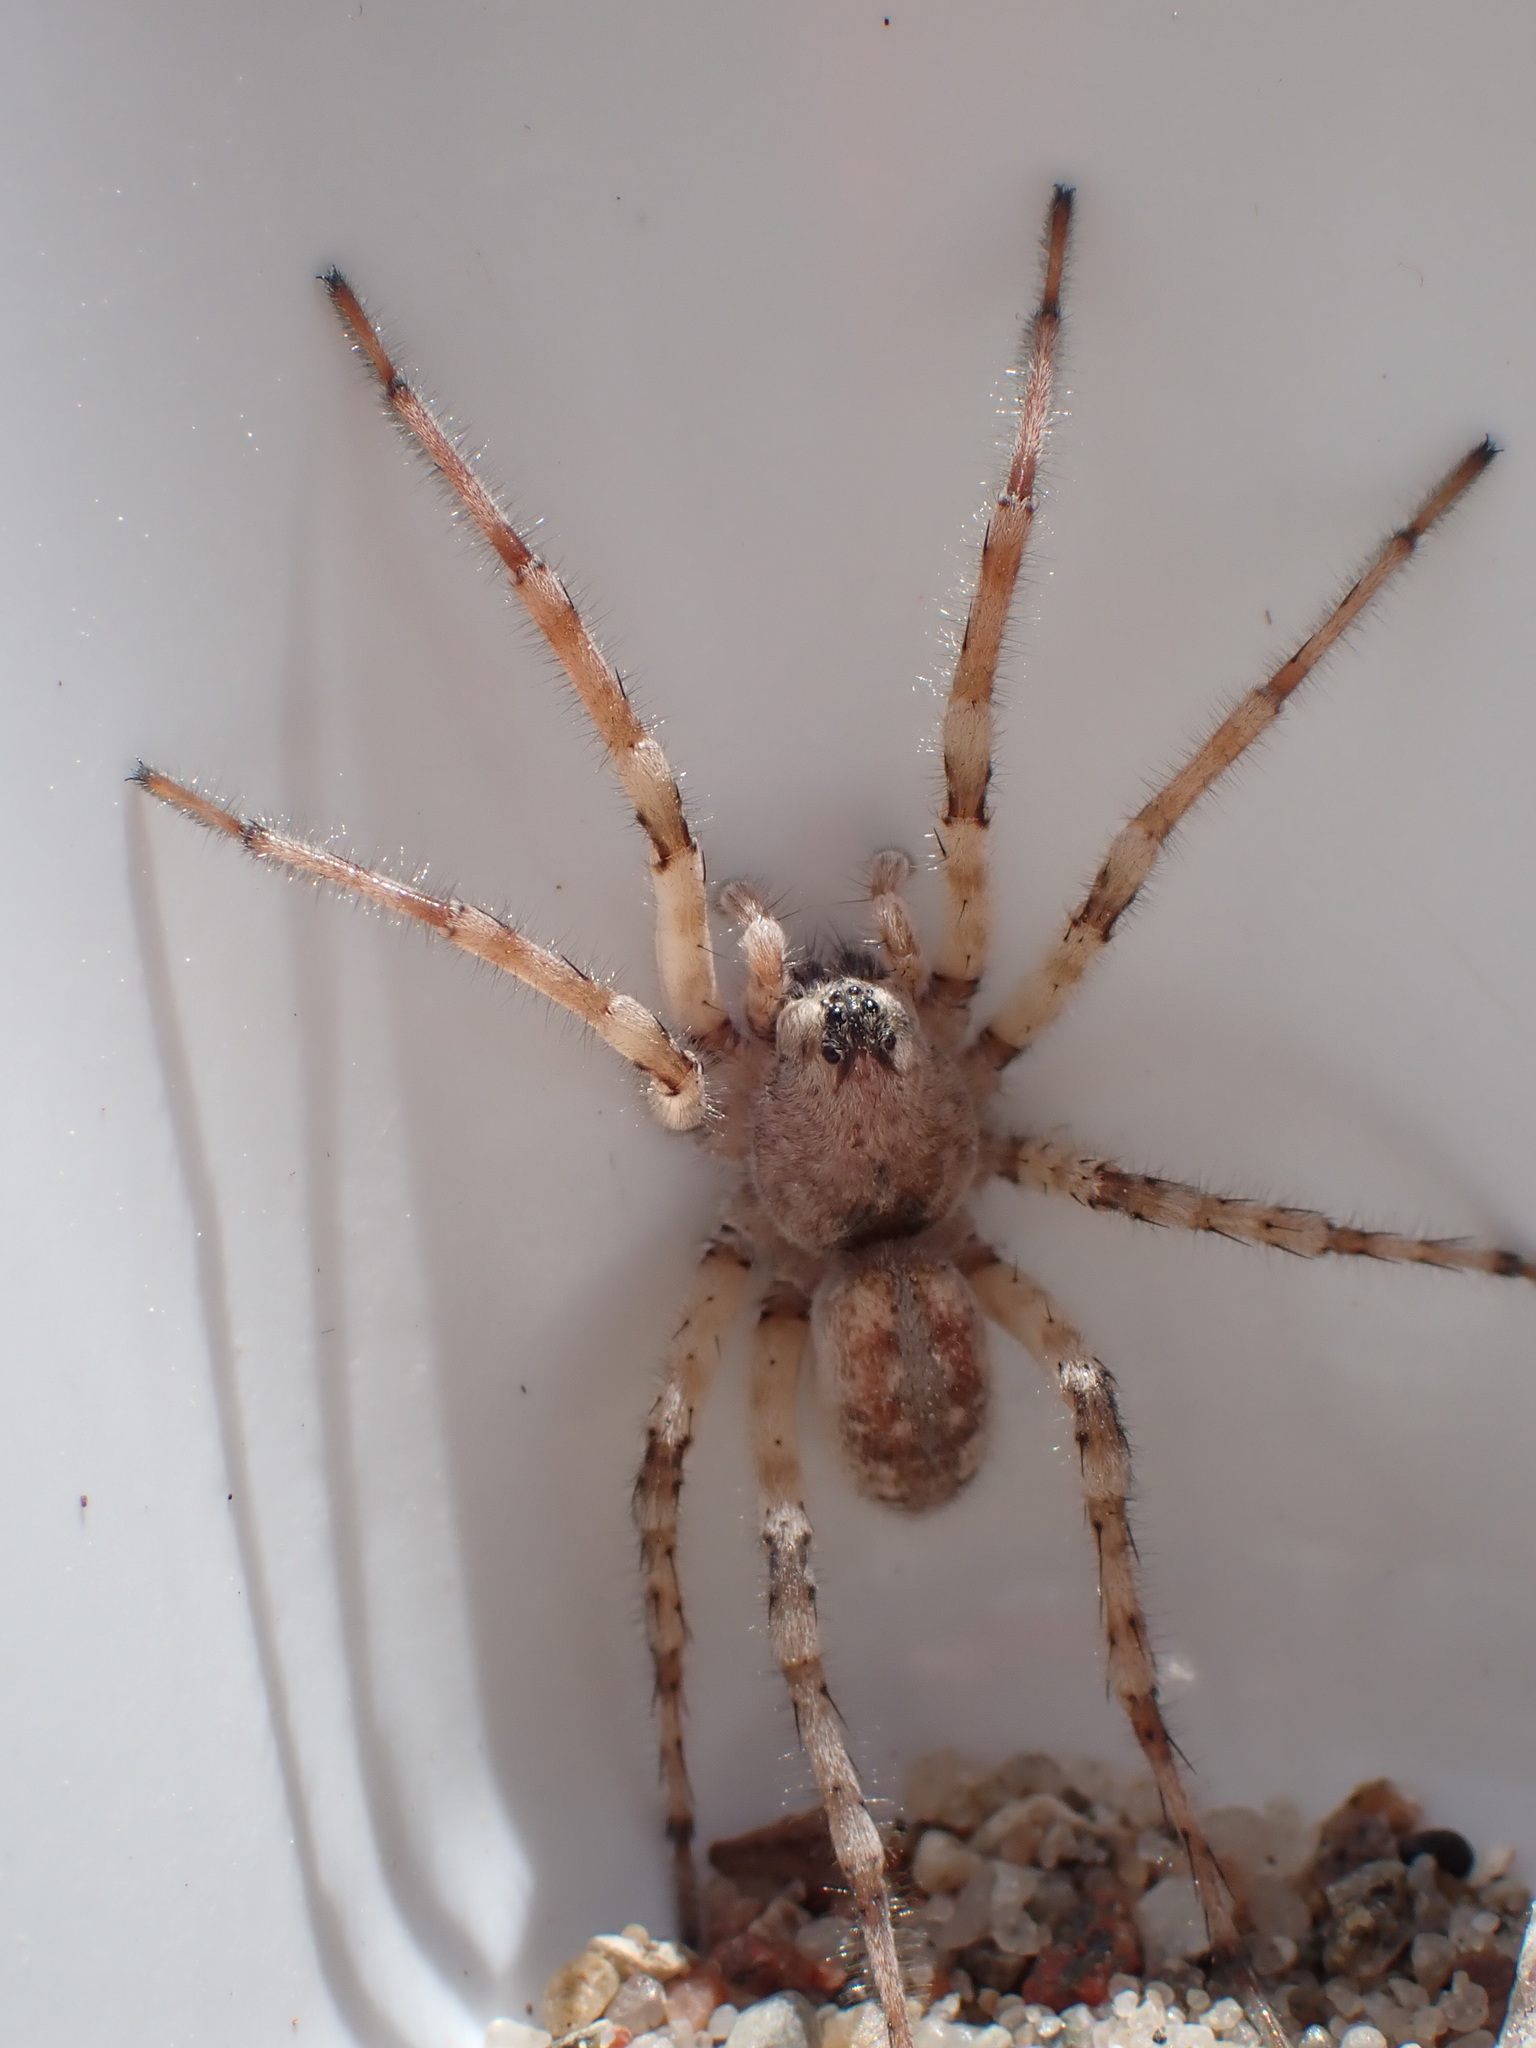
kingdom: Animalia
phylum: Arthropoda
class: Arachnida
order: Araneae
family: Lycosidae
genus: Arctosa
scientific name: Arctosa cinerea
